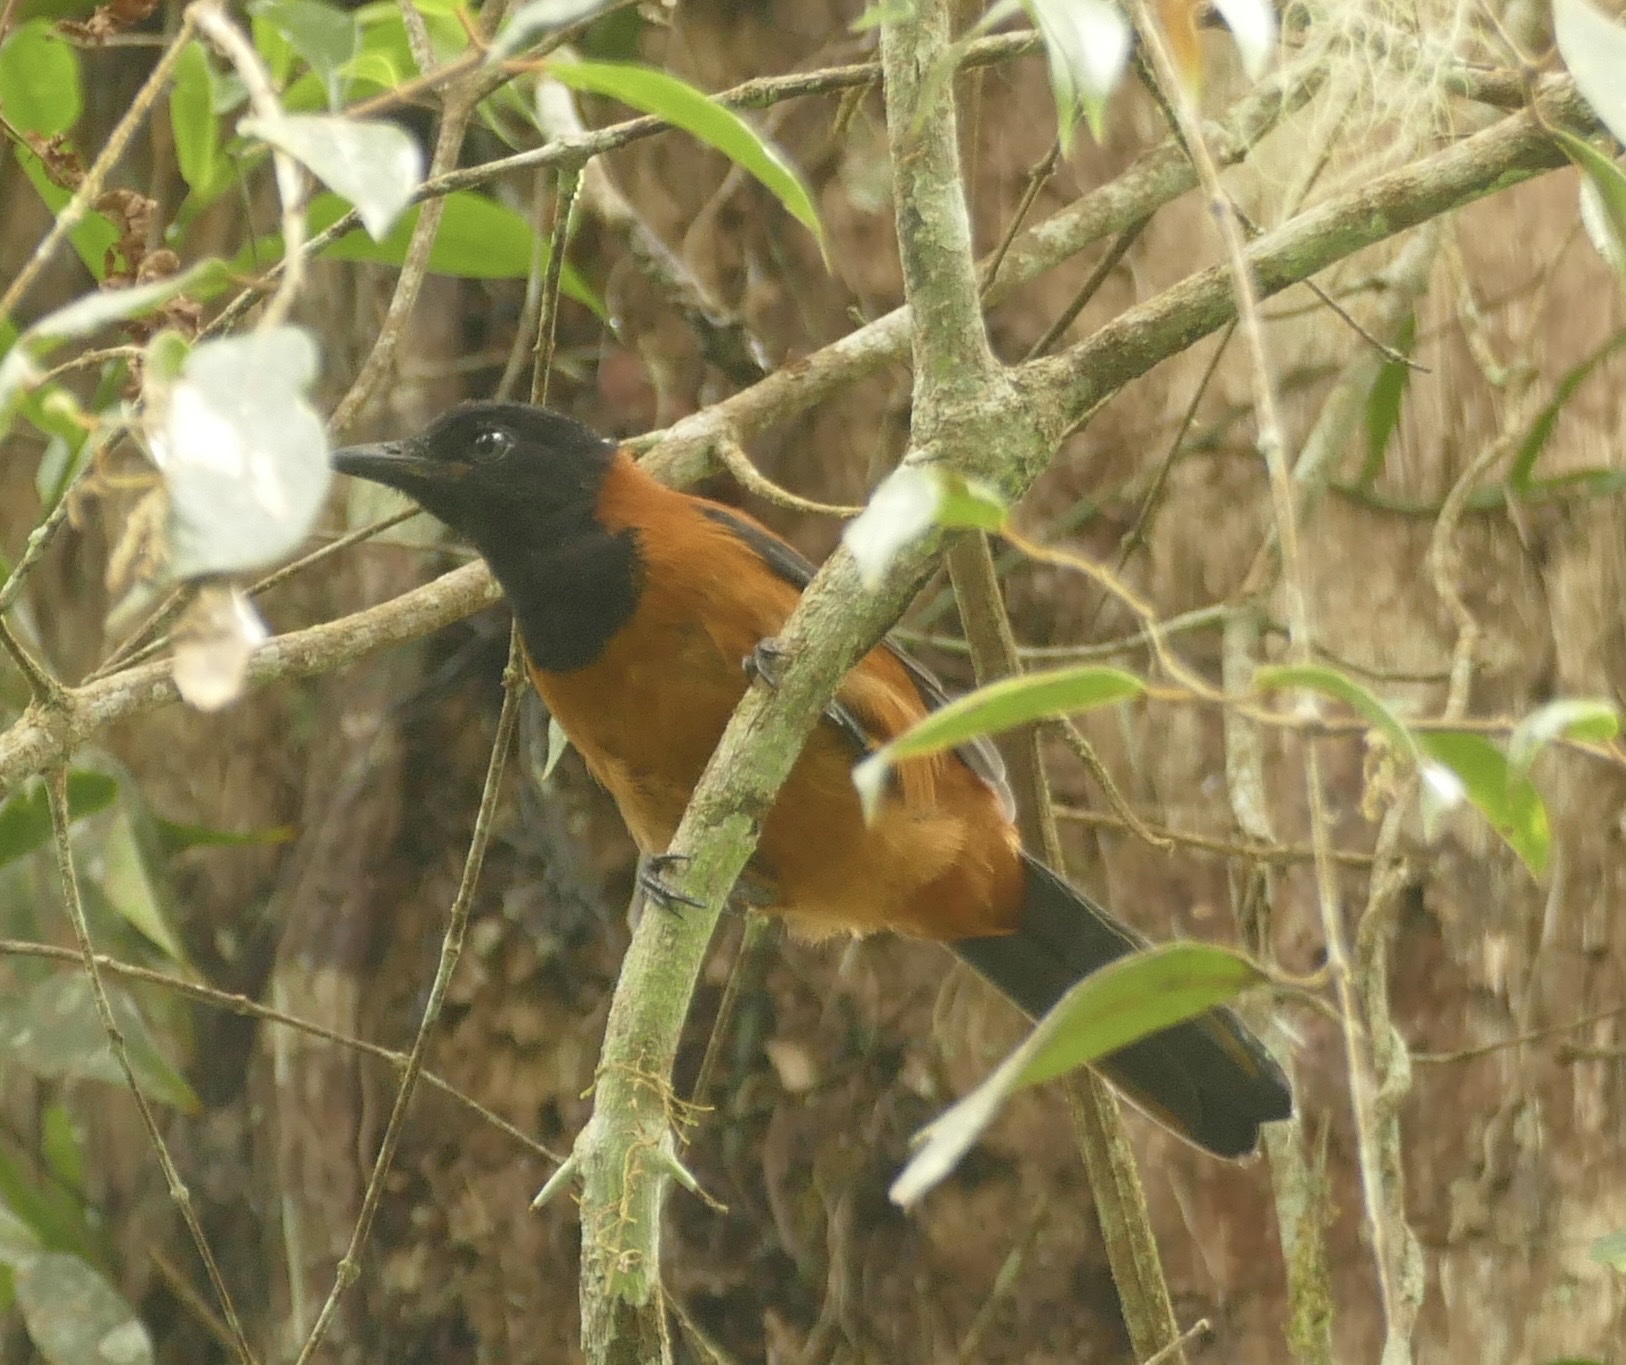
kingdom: Animalia
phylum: Chordata
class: Aves
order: Passeriformes
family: Oriolidae
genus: Pitohui
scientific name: Pitohui dichrous
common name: Hooded pitohui
